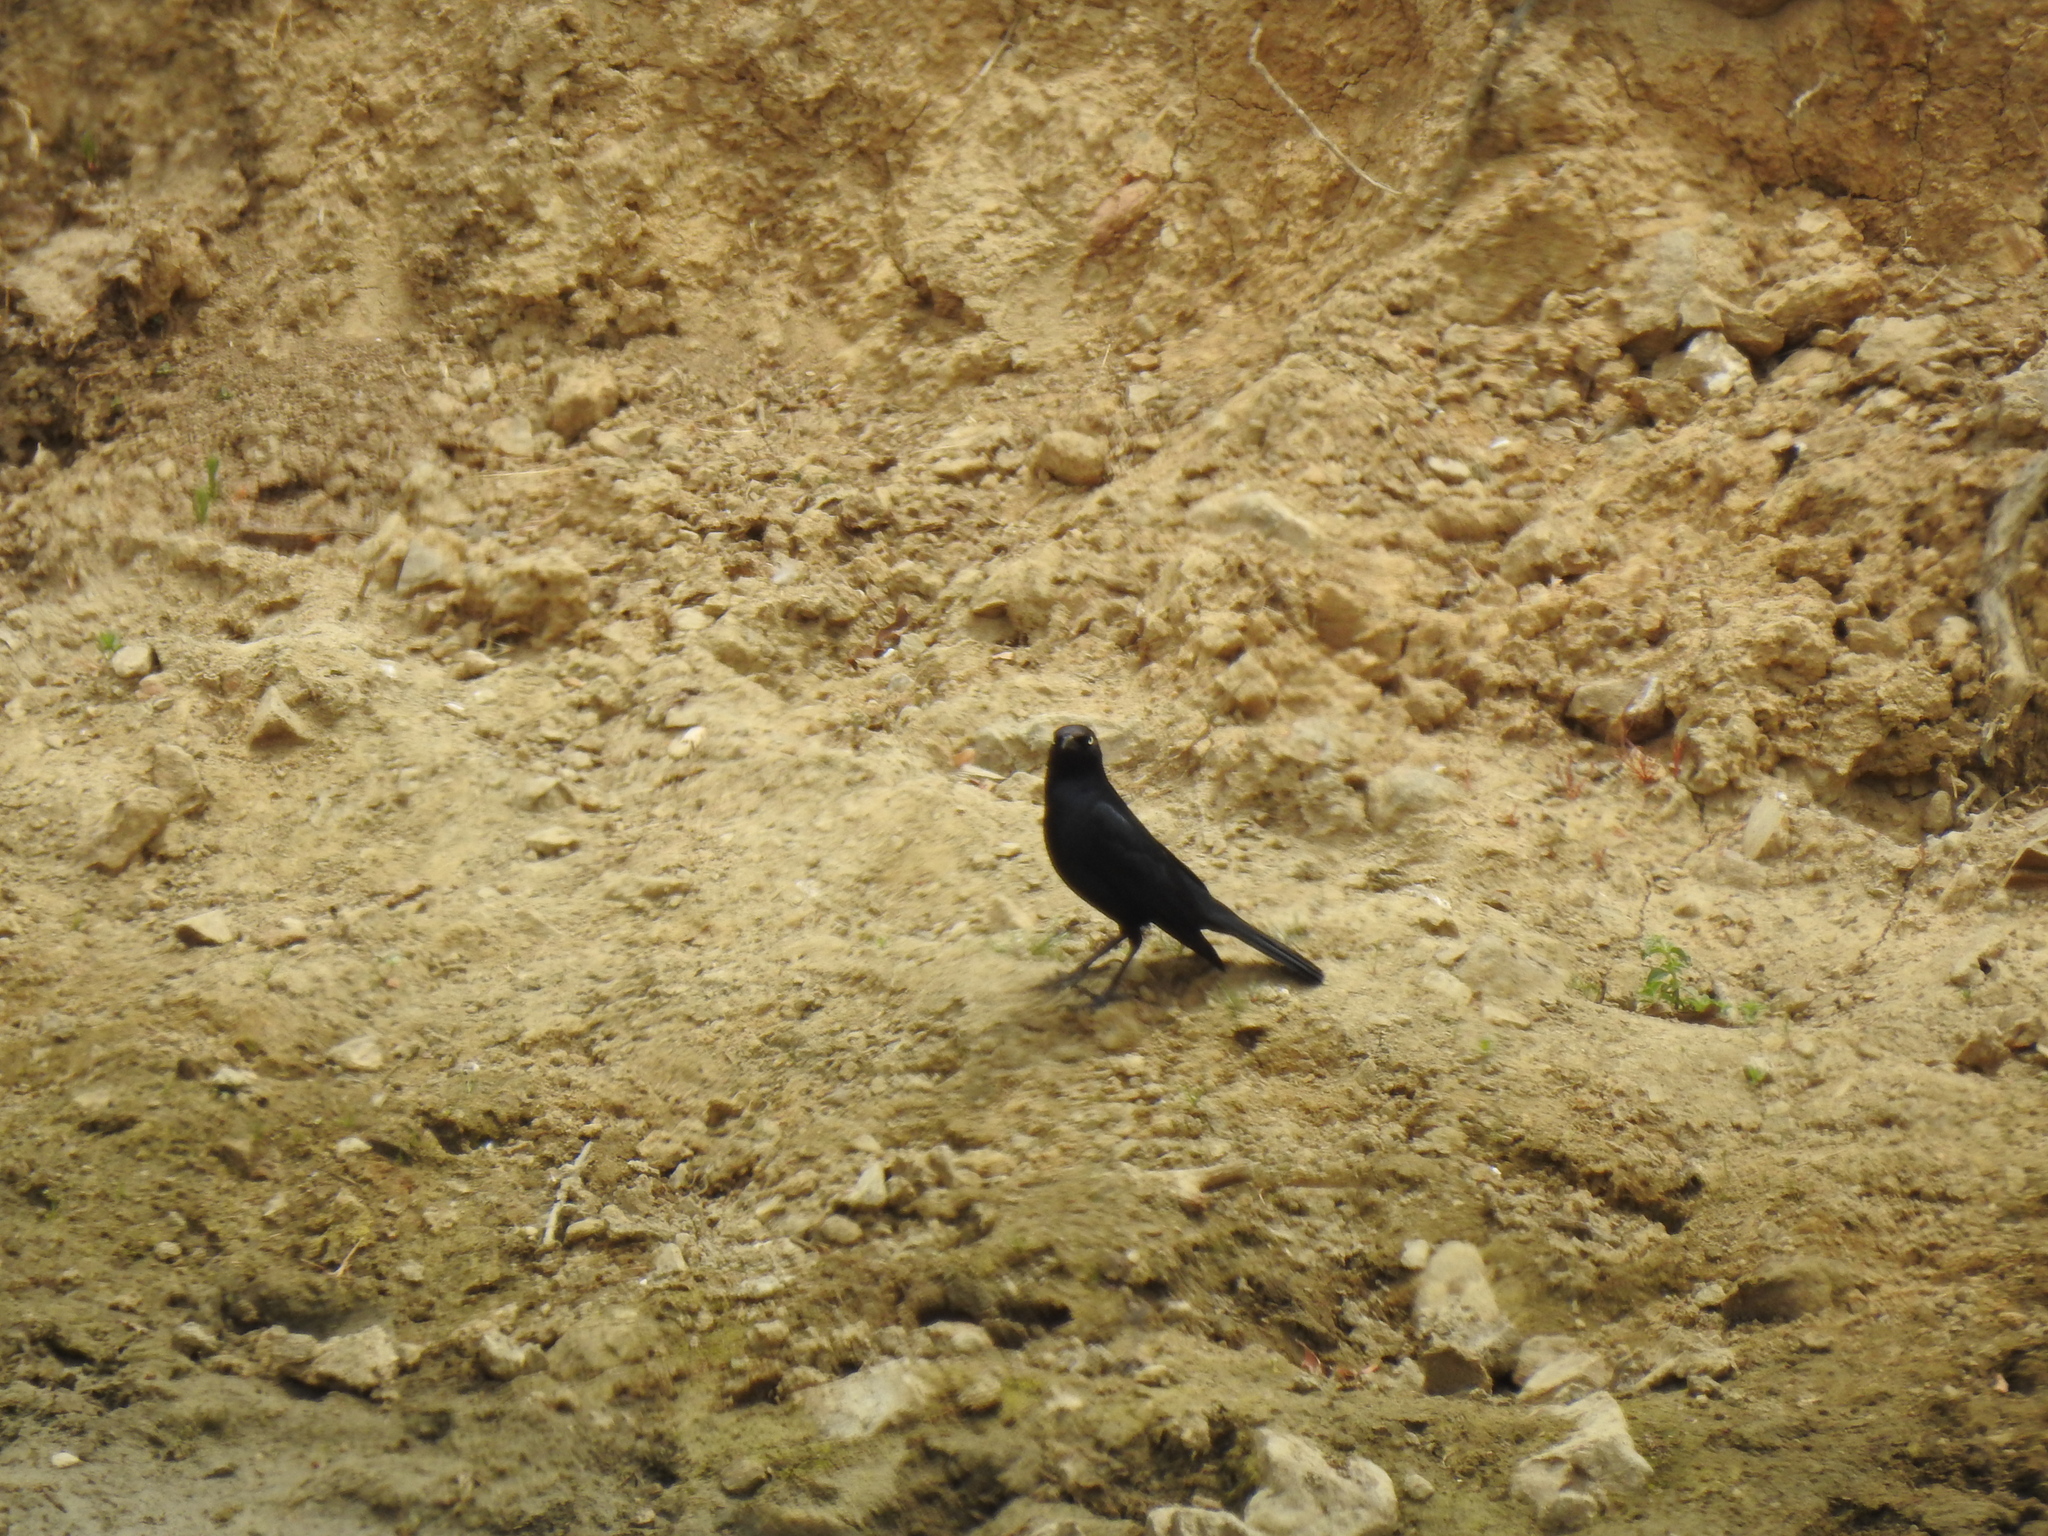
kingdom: Animalia
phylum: Chordata
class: Aves
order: Passeriformes
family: Icteridae
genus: Euphagus
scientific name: Euphagus cyanocephalus
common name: Brewer's blackbird
